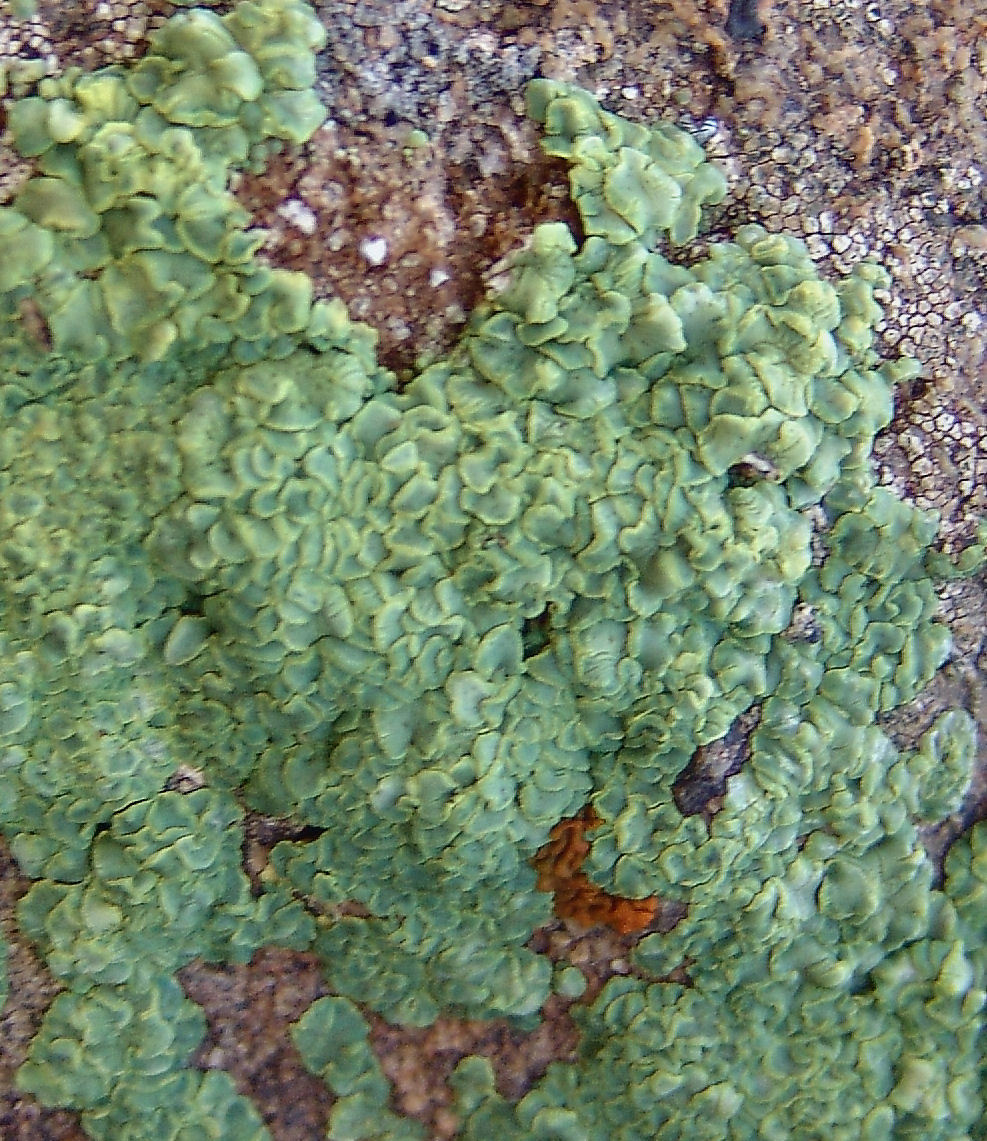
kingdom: Fungi
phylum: Ascomycota
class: Lecanoromycetes
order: Acarosporales
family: Acarosporaceae
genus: Acarospora
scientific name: Acarospora socialis
